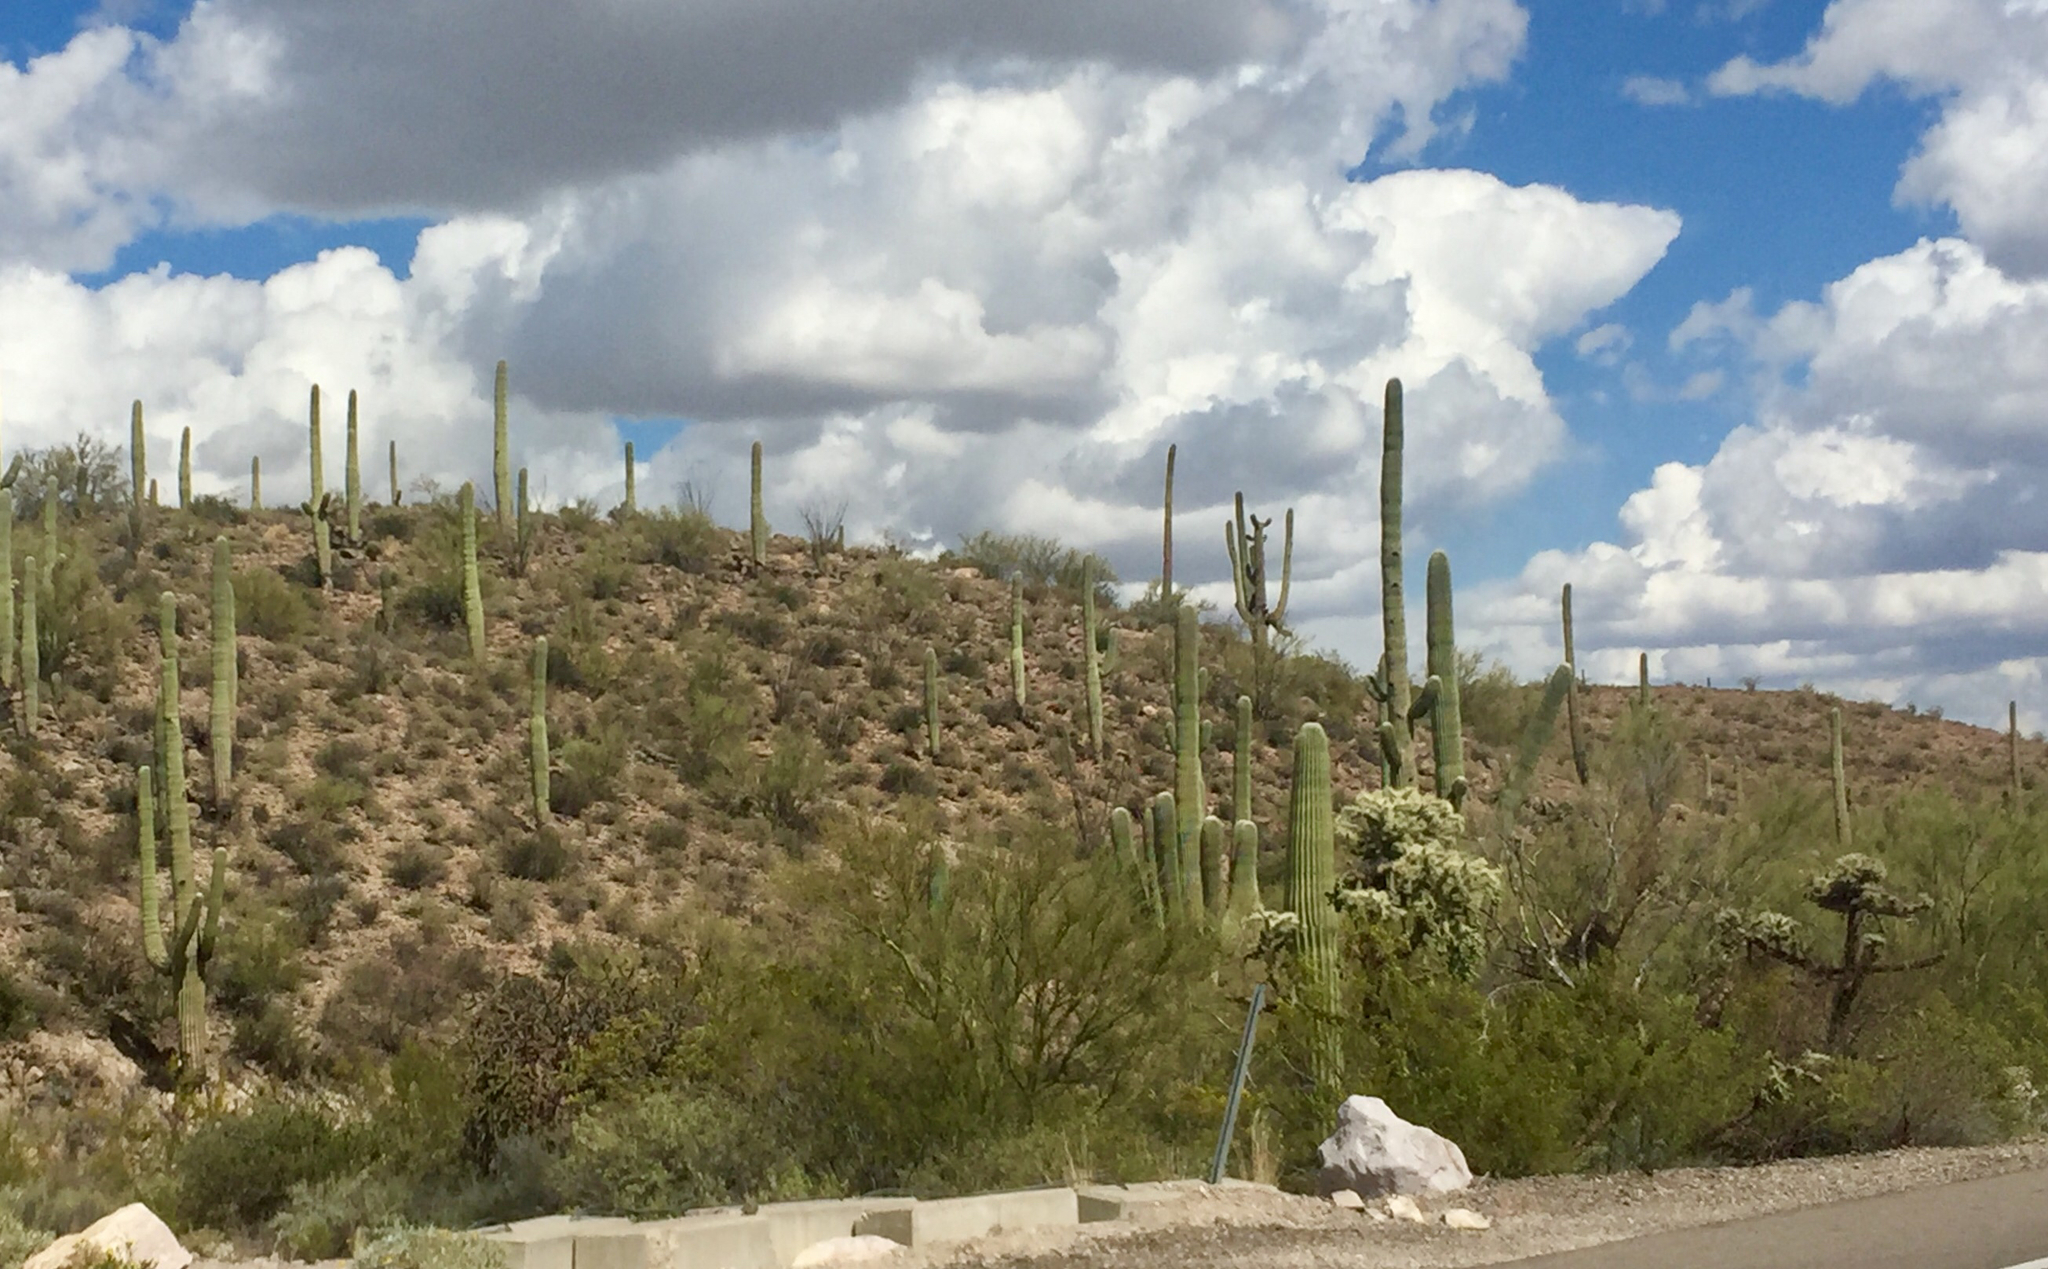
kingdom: Plantae
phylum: Tracheophyta
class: Magnoliopsida
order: Caryophyllales
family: Cactaceae
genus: Carnegiea
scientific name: Carnegiea gigantea
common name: Saguaro
